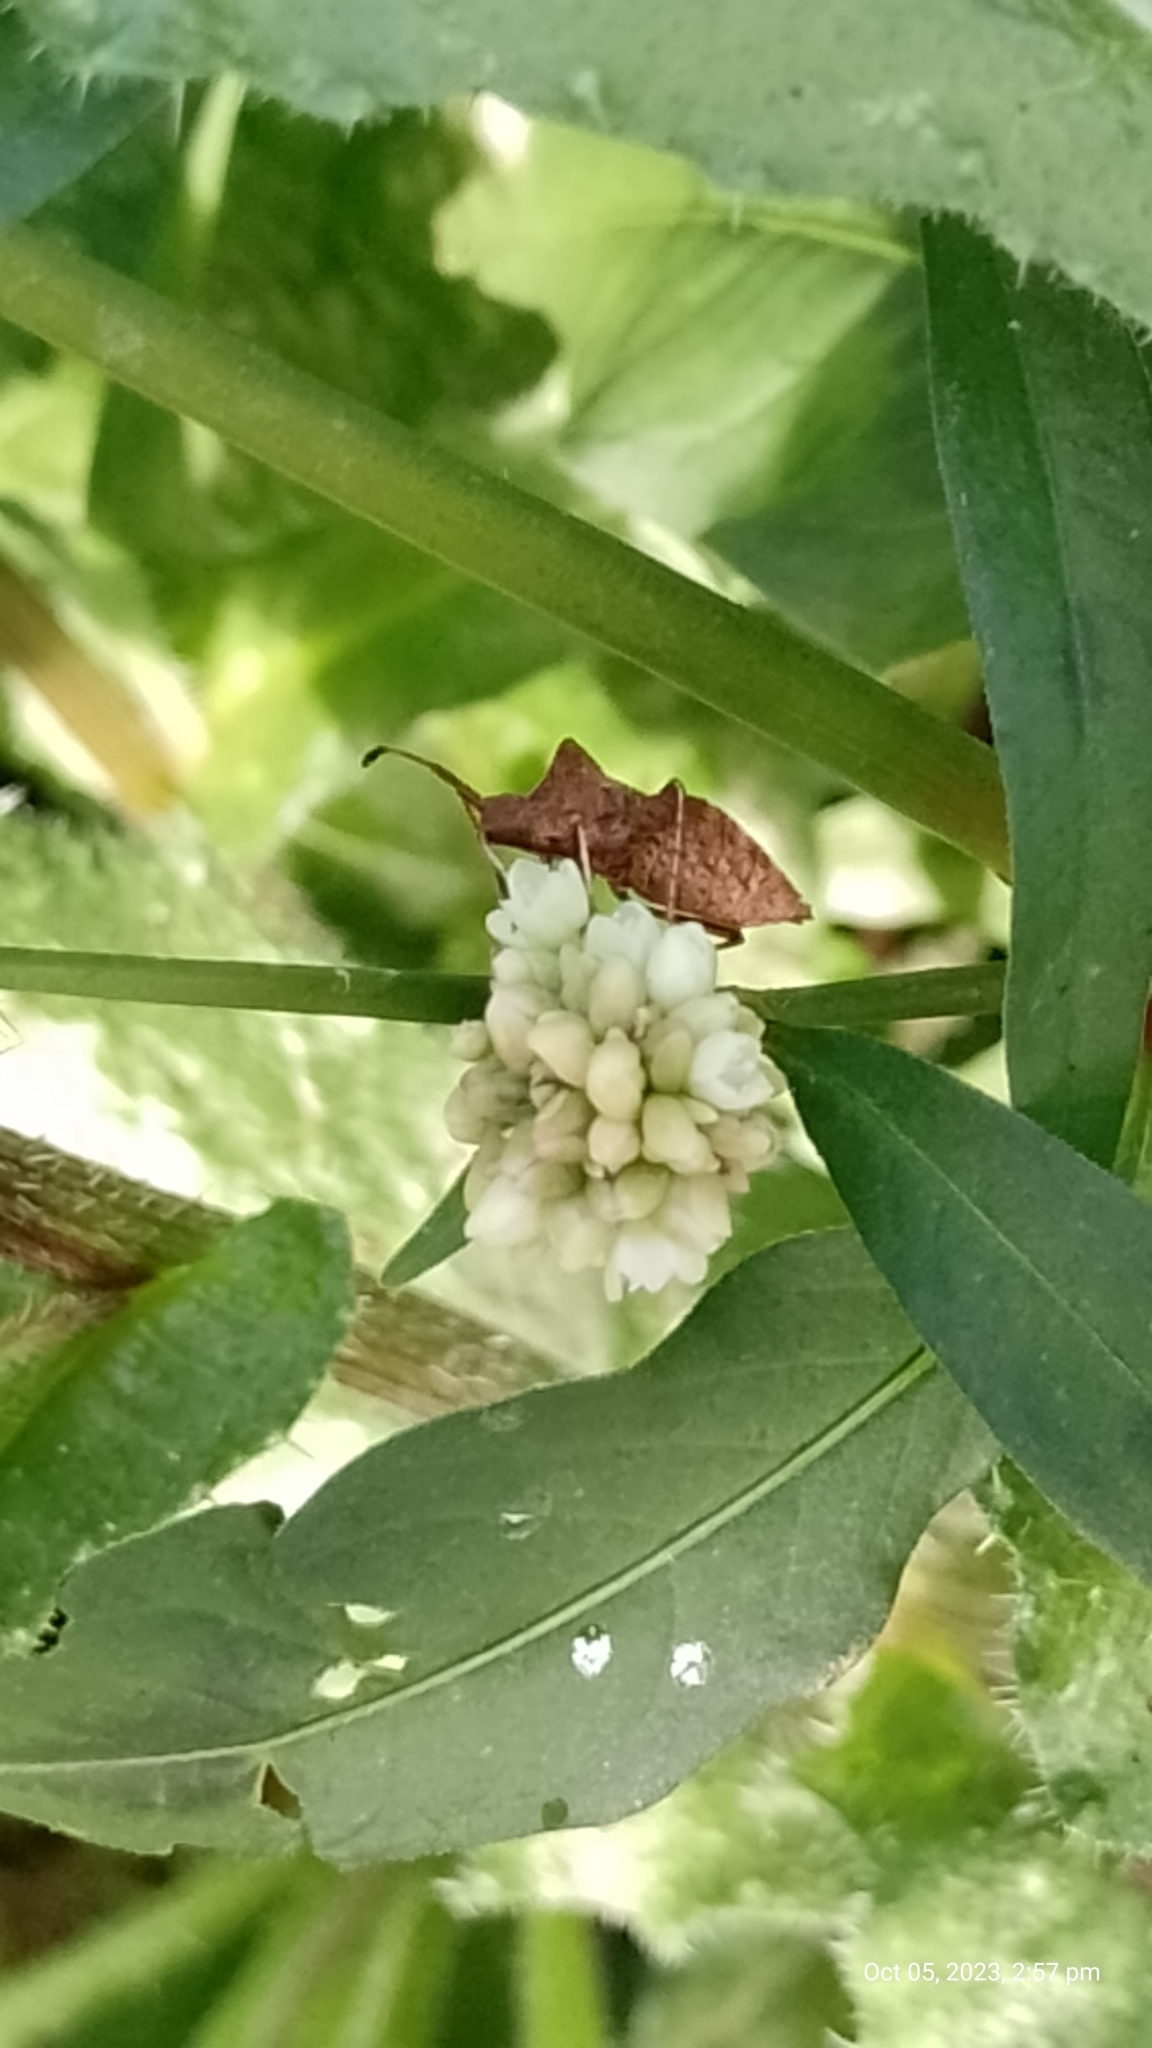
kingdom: Animalia
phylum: Arthropoda
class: Insecta
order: Hemiptera
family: Coreidae
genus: Coreus
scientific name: Coreus marginatus
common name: Dock bug
